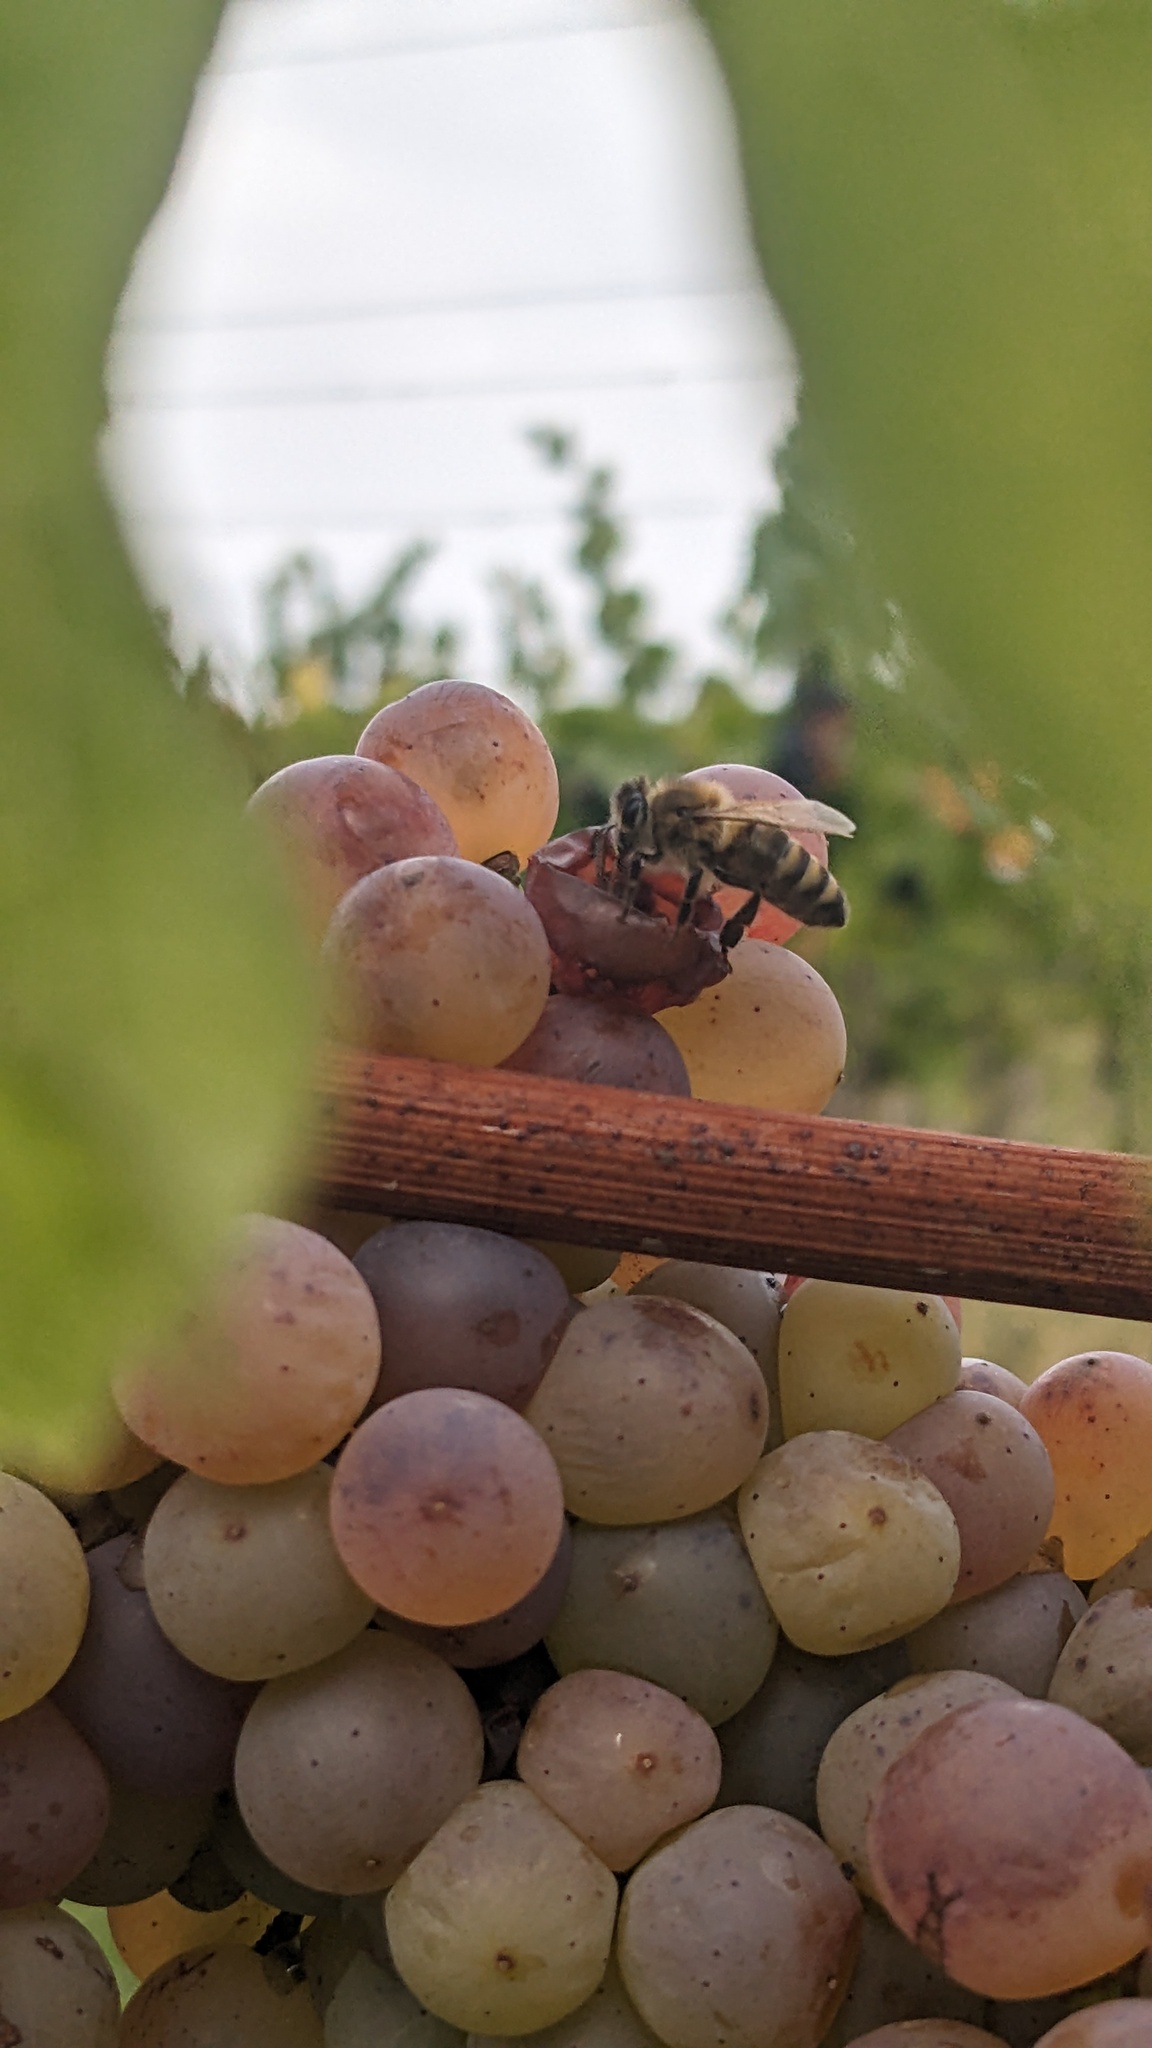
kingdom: Animalia
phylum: Arthropoda
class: Insecta
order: Hymenoptera
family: Apidae
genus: Apis
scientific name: Apis mellifera
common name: Honey bee
